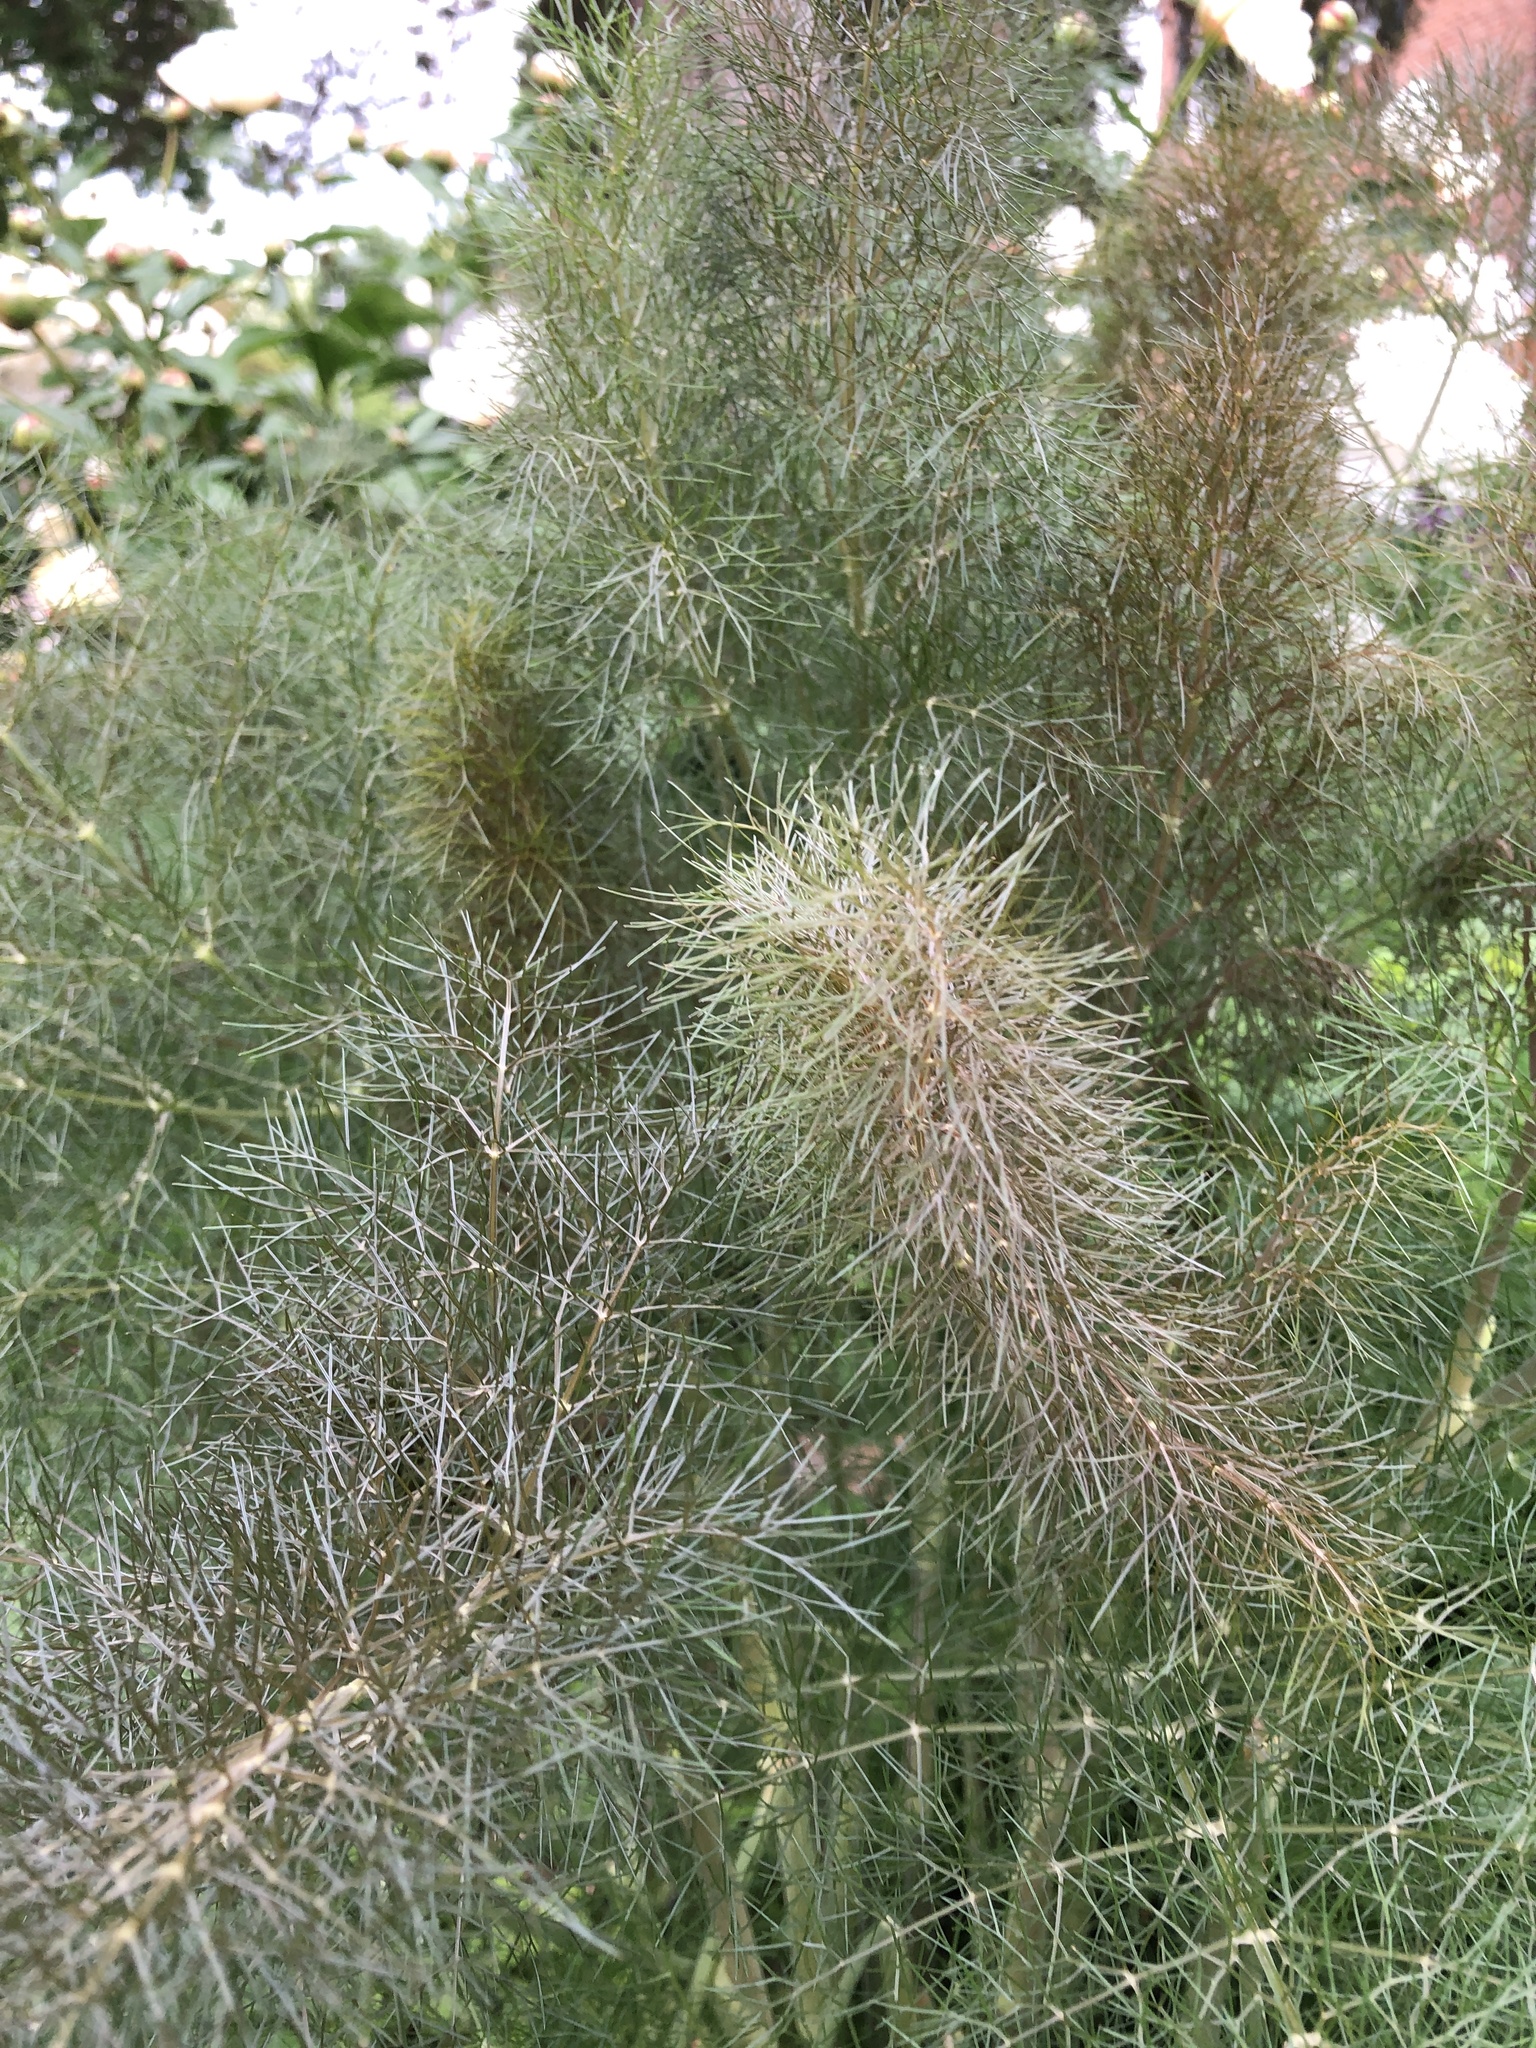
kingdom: Plantae
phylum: Tracheophyta
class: Magnoliopsida
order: Apiales
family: Apiaceae
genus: Foeniculum
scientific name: Foeniculum vulgare
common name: Fennel
